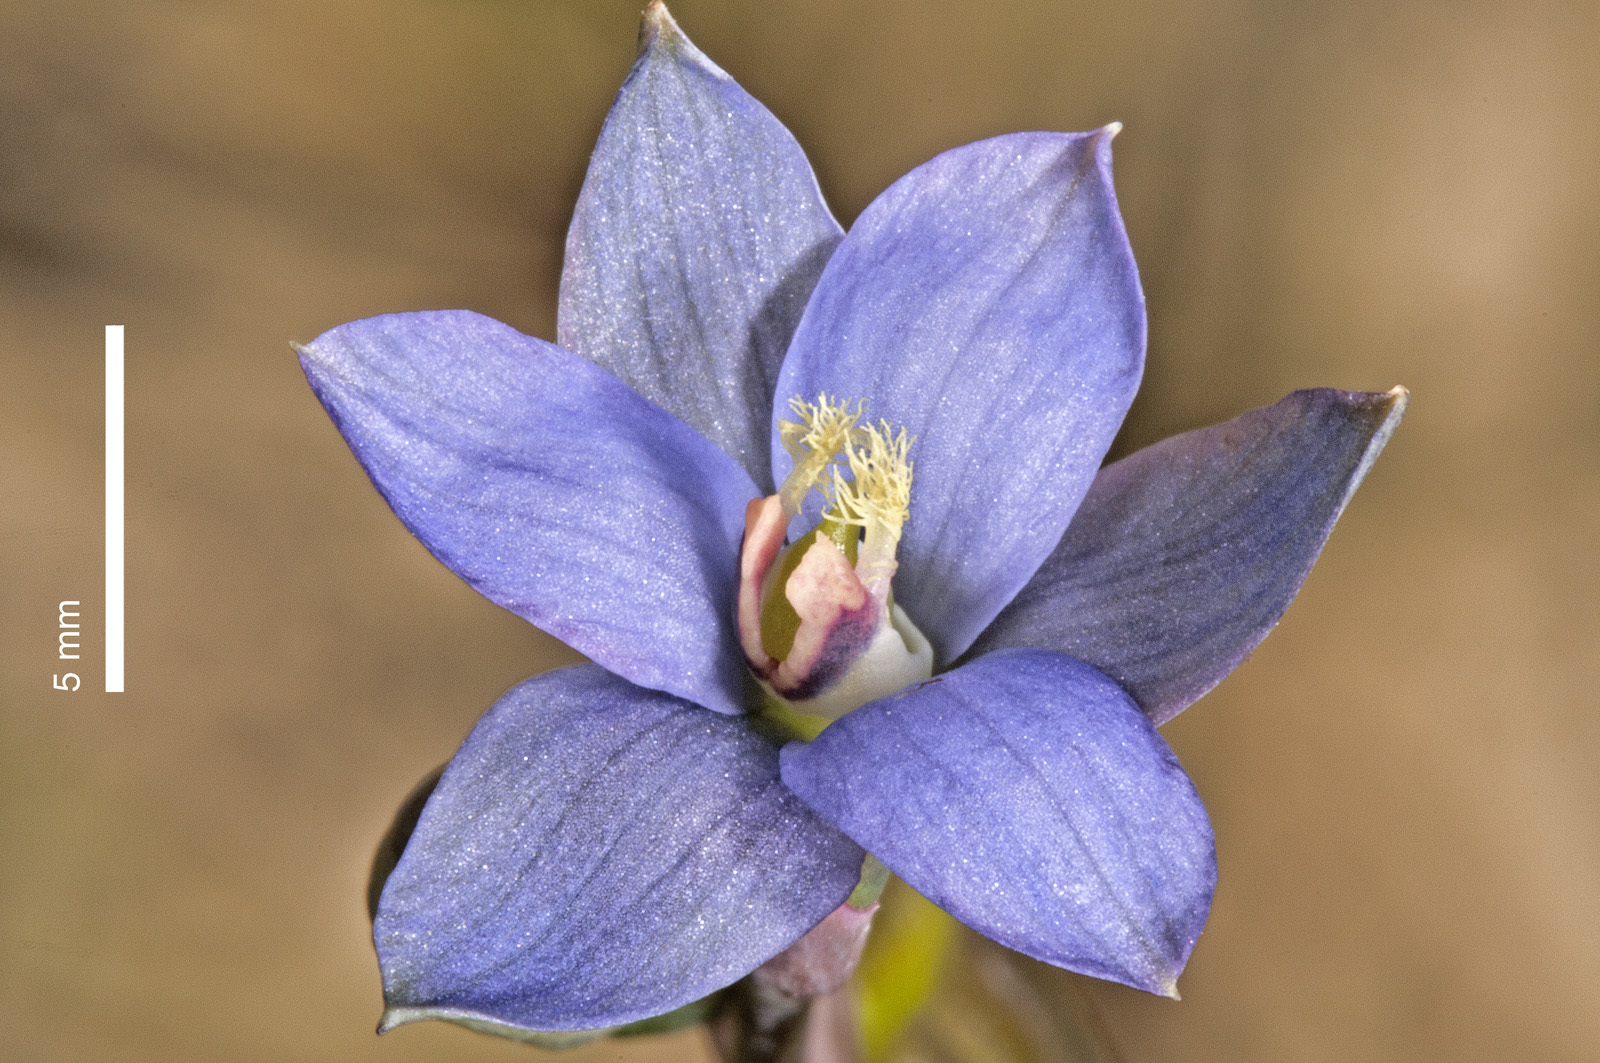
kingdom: Plantae
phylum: Tracheophyta
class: Liliopsida
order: Asparagales
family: Orchidaceae
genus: Thelymitra
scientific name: Thelymitra formosa
